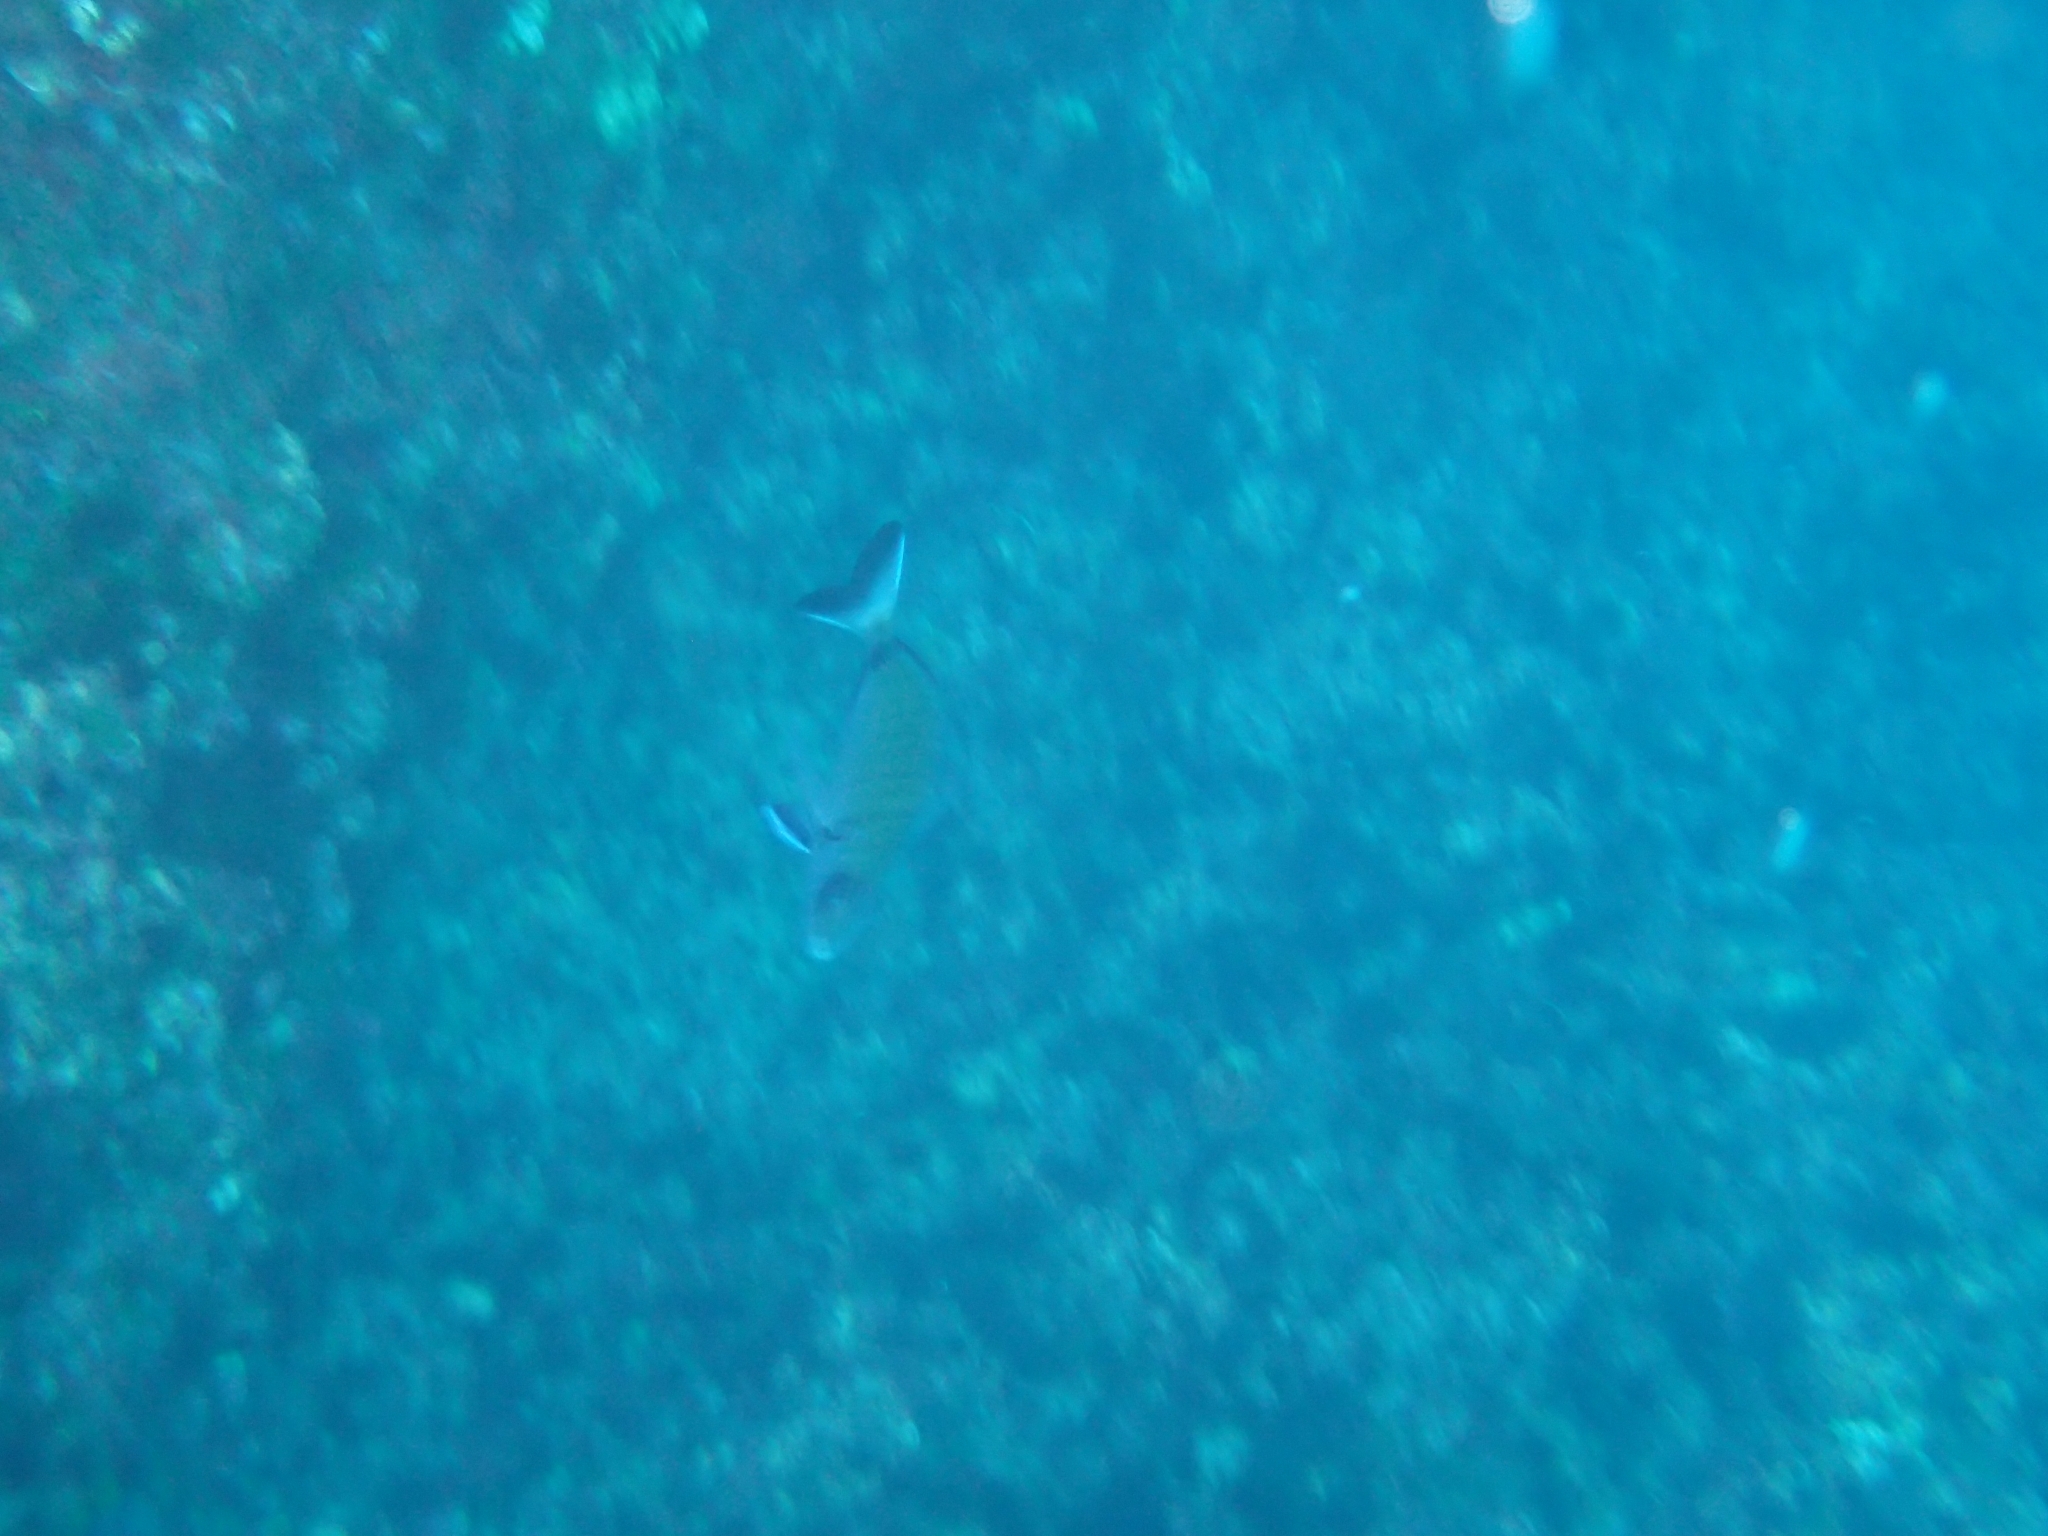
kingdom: Animalia
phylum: Chordata
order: Perciformes
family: Sparidae
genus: Diplodus
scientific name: Diplodus sargus
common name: White seabream
